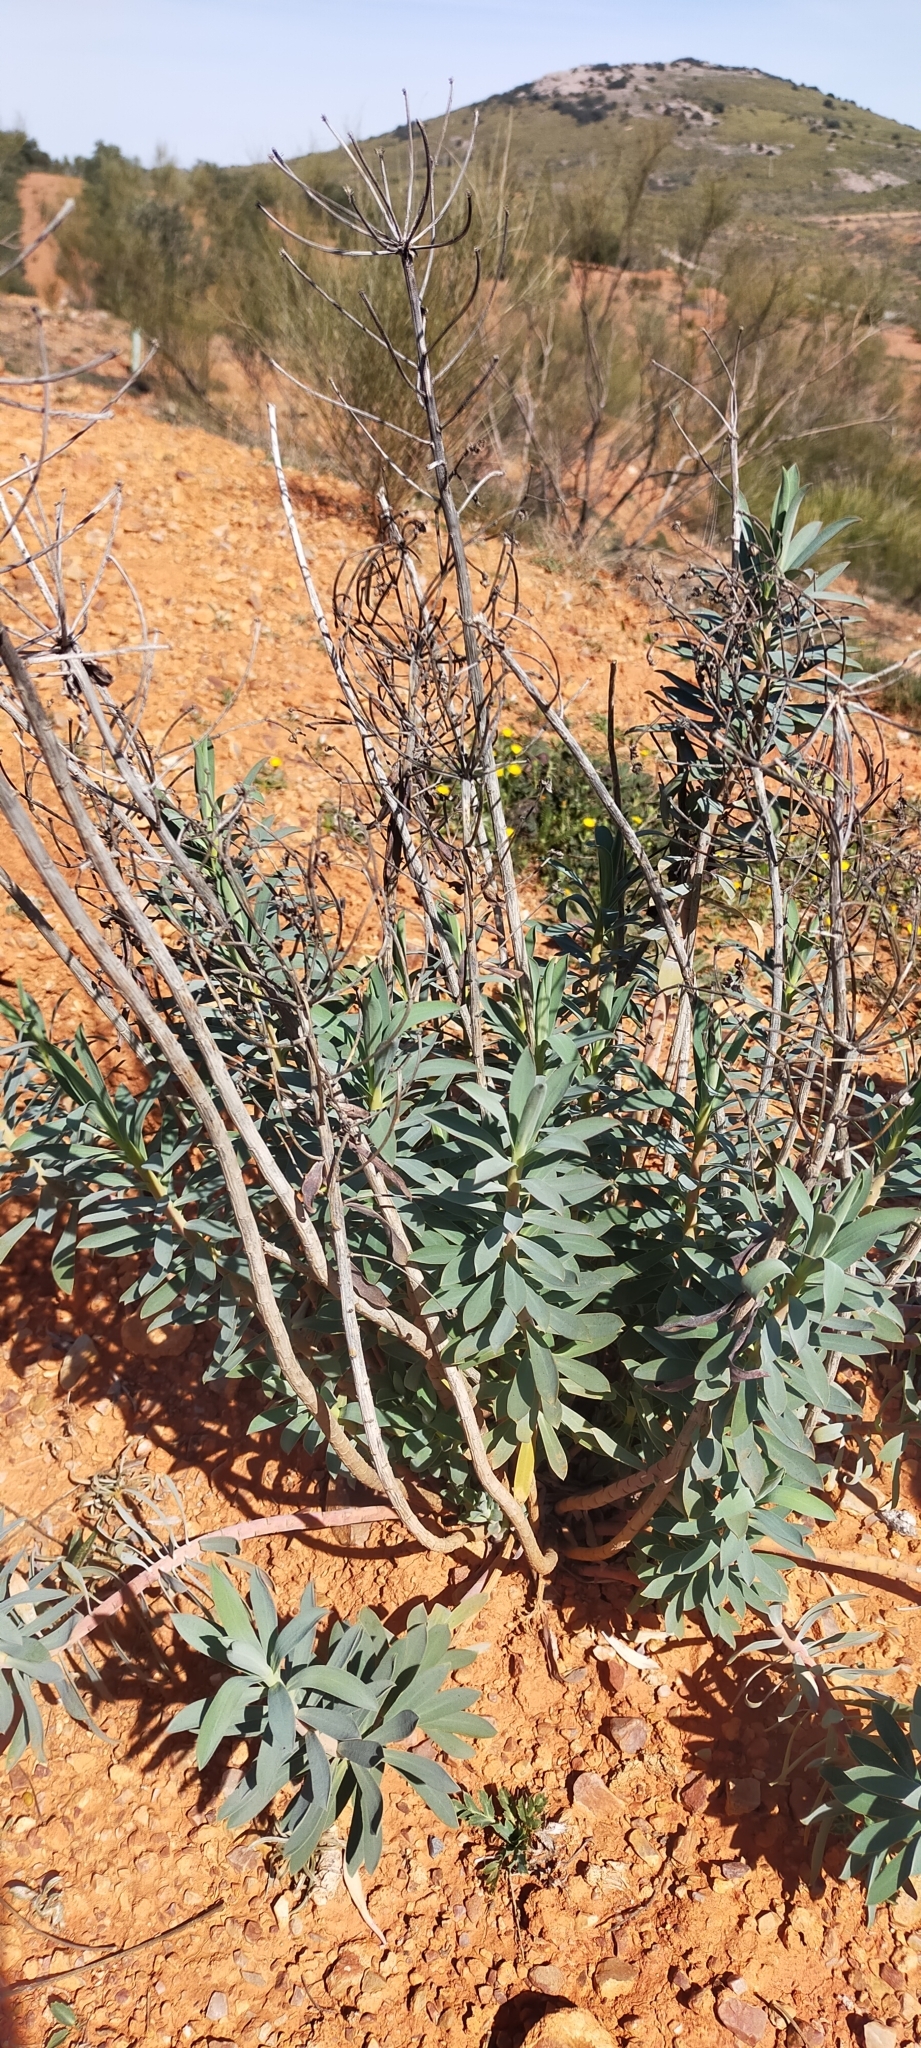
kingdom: Plantae
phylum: Tracheophyta
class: Magnoliopsida
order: Malpighiales
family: Euphorbiaceae
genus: Euphorbia
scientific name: Euphorbia nicaeensis
